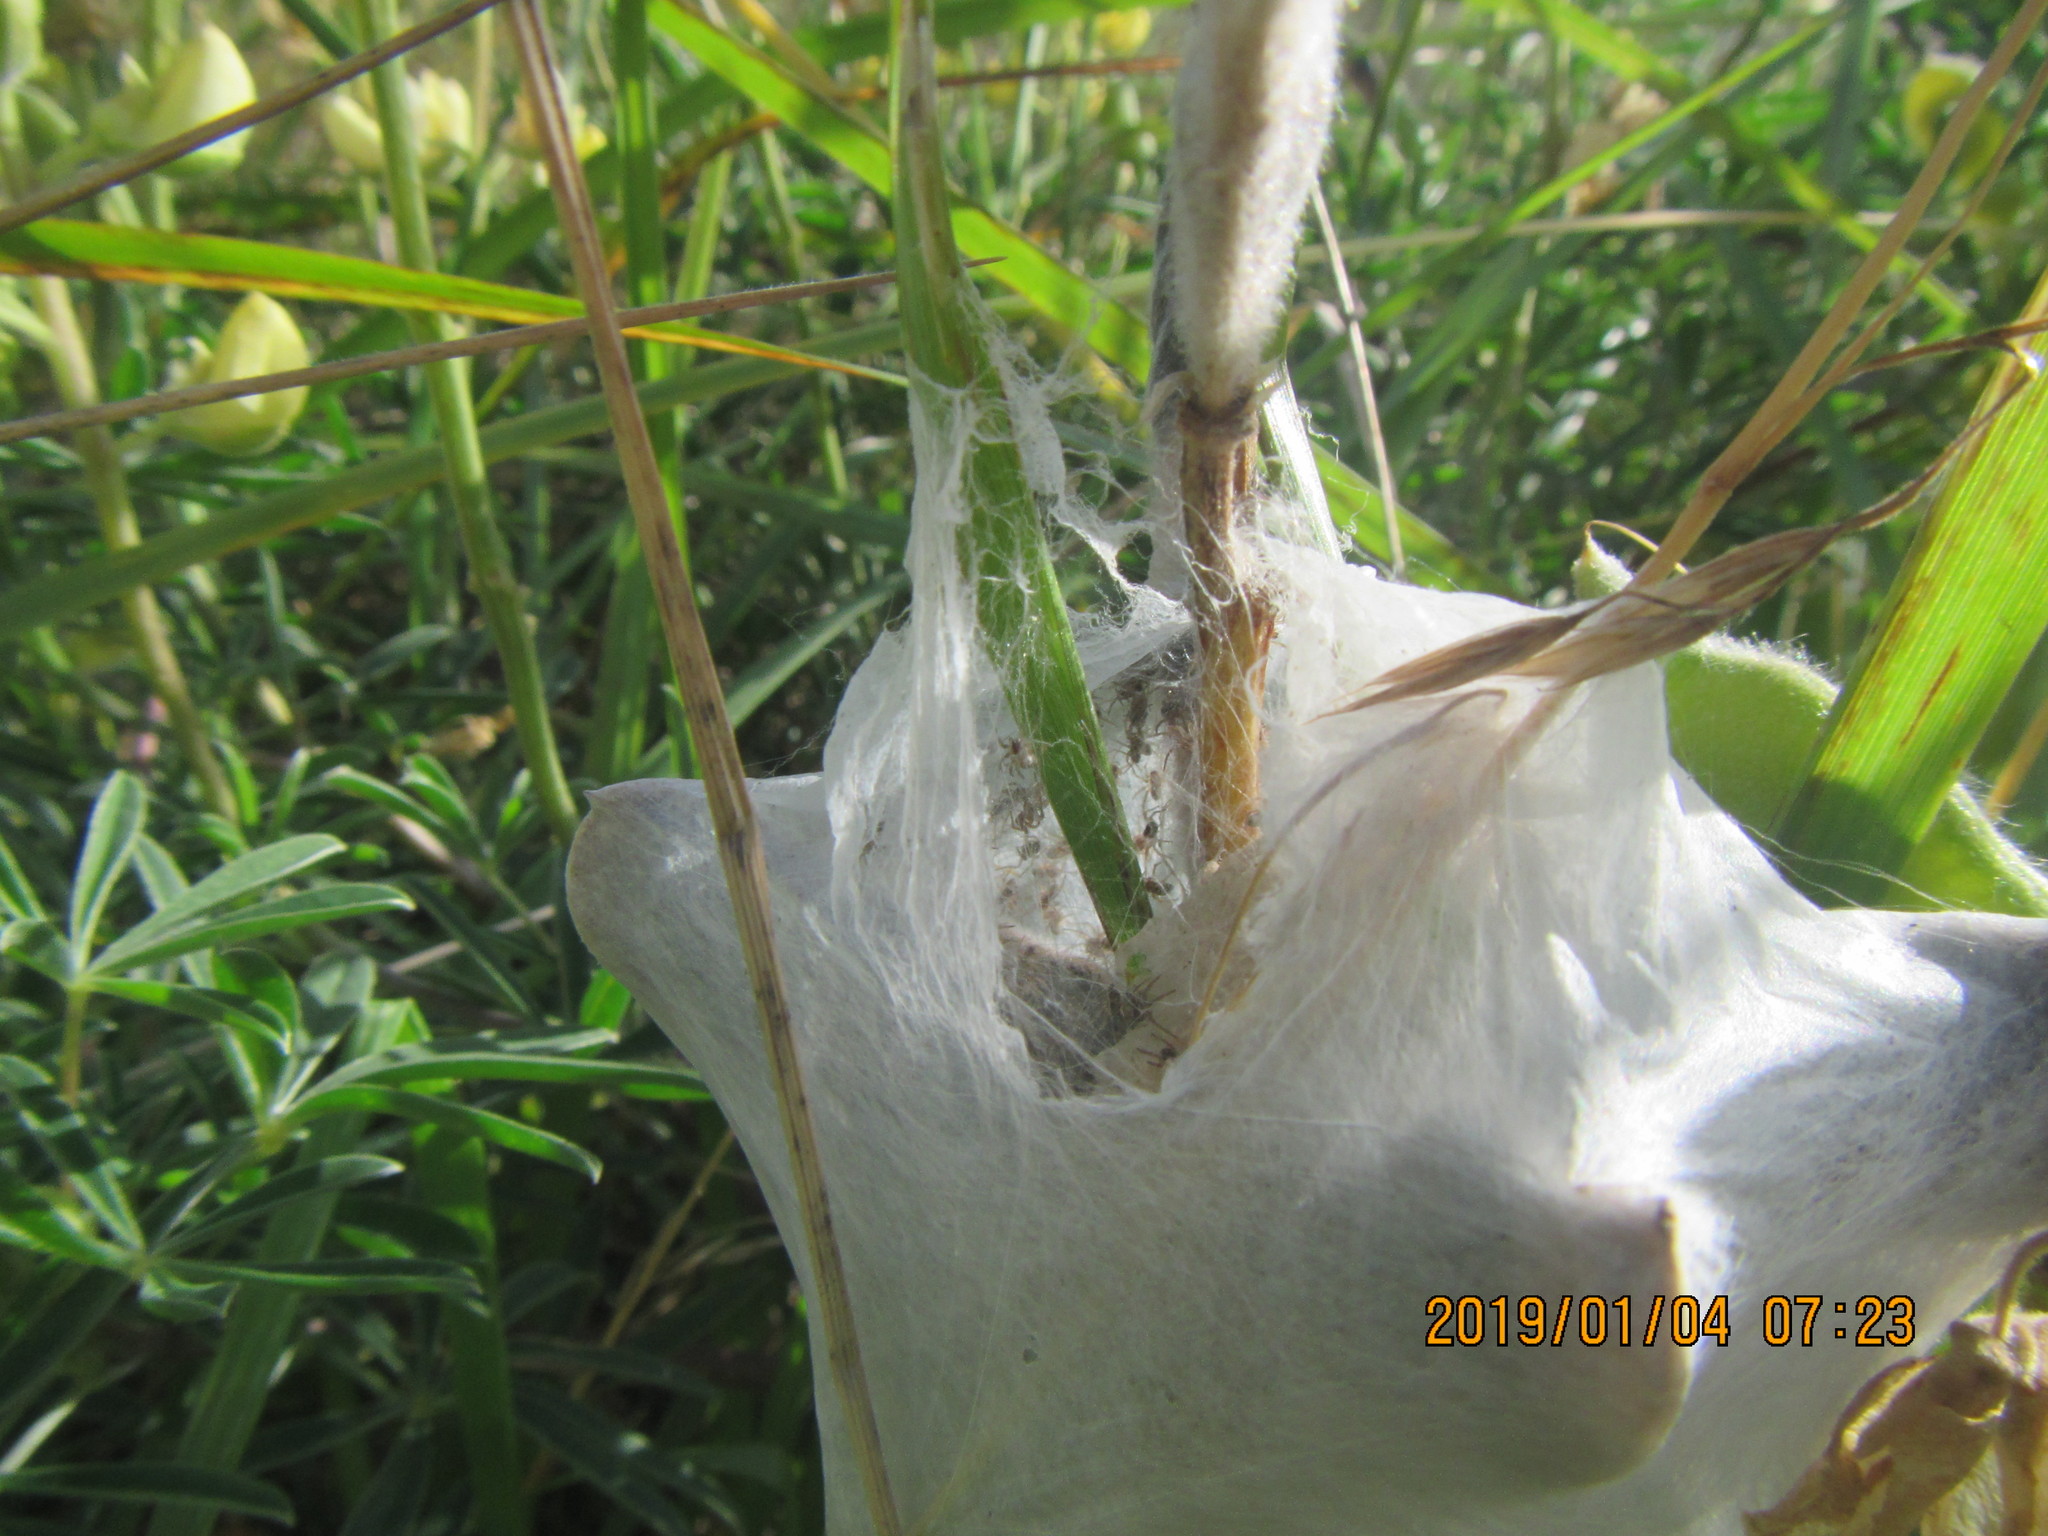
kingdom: Animalia
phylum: Arthropoda
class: Arachnida
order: Araneae
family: Pisauridae
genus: Dolomedes
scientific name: Dolomedes minor
